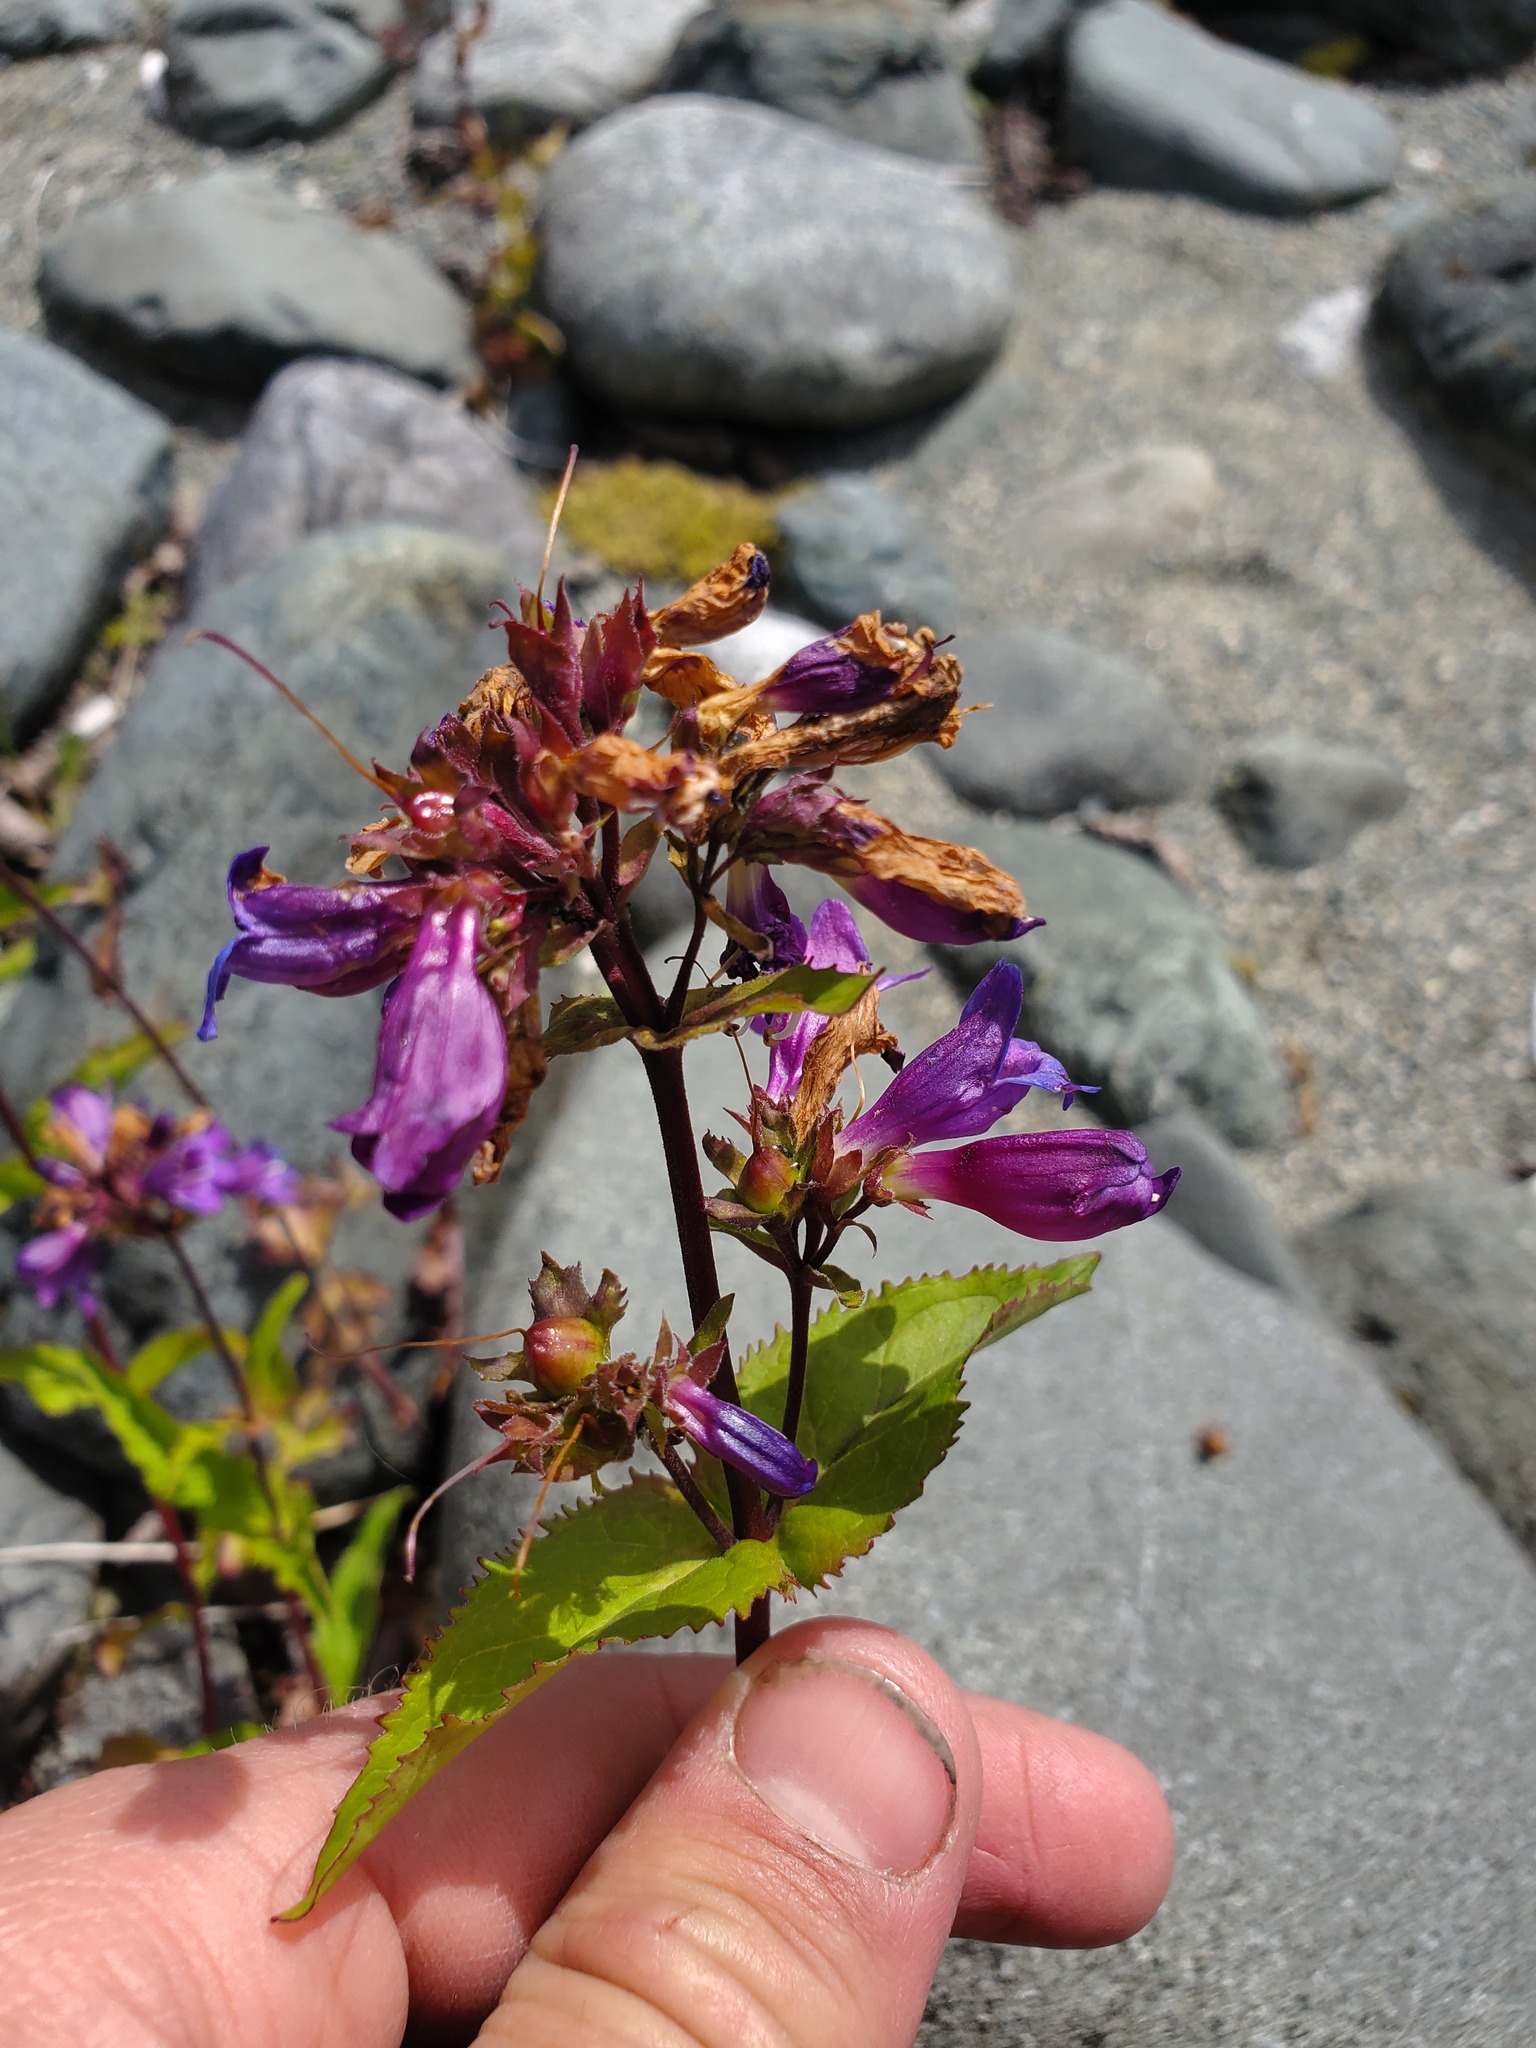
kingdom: Plantae
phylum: Tracheophyta
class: Magnoliopsida
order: Lamiales
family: Plantaginaceae
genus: Penstemon
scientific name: Penstemon serrulatus
